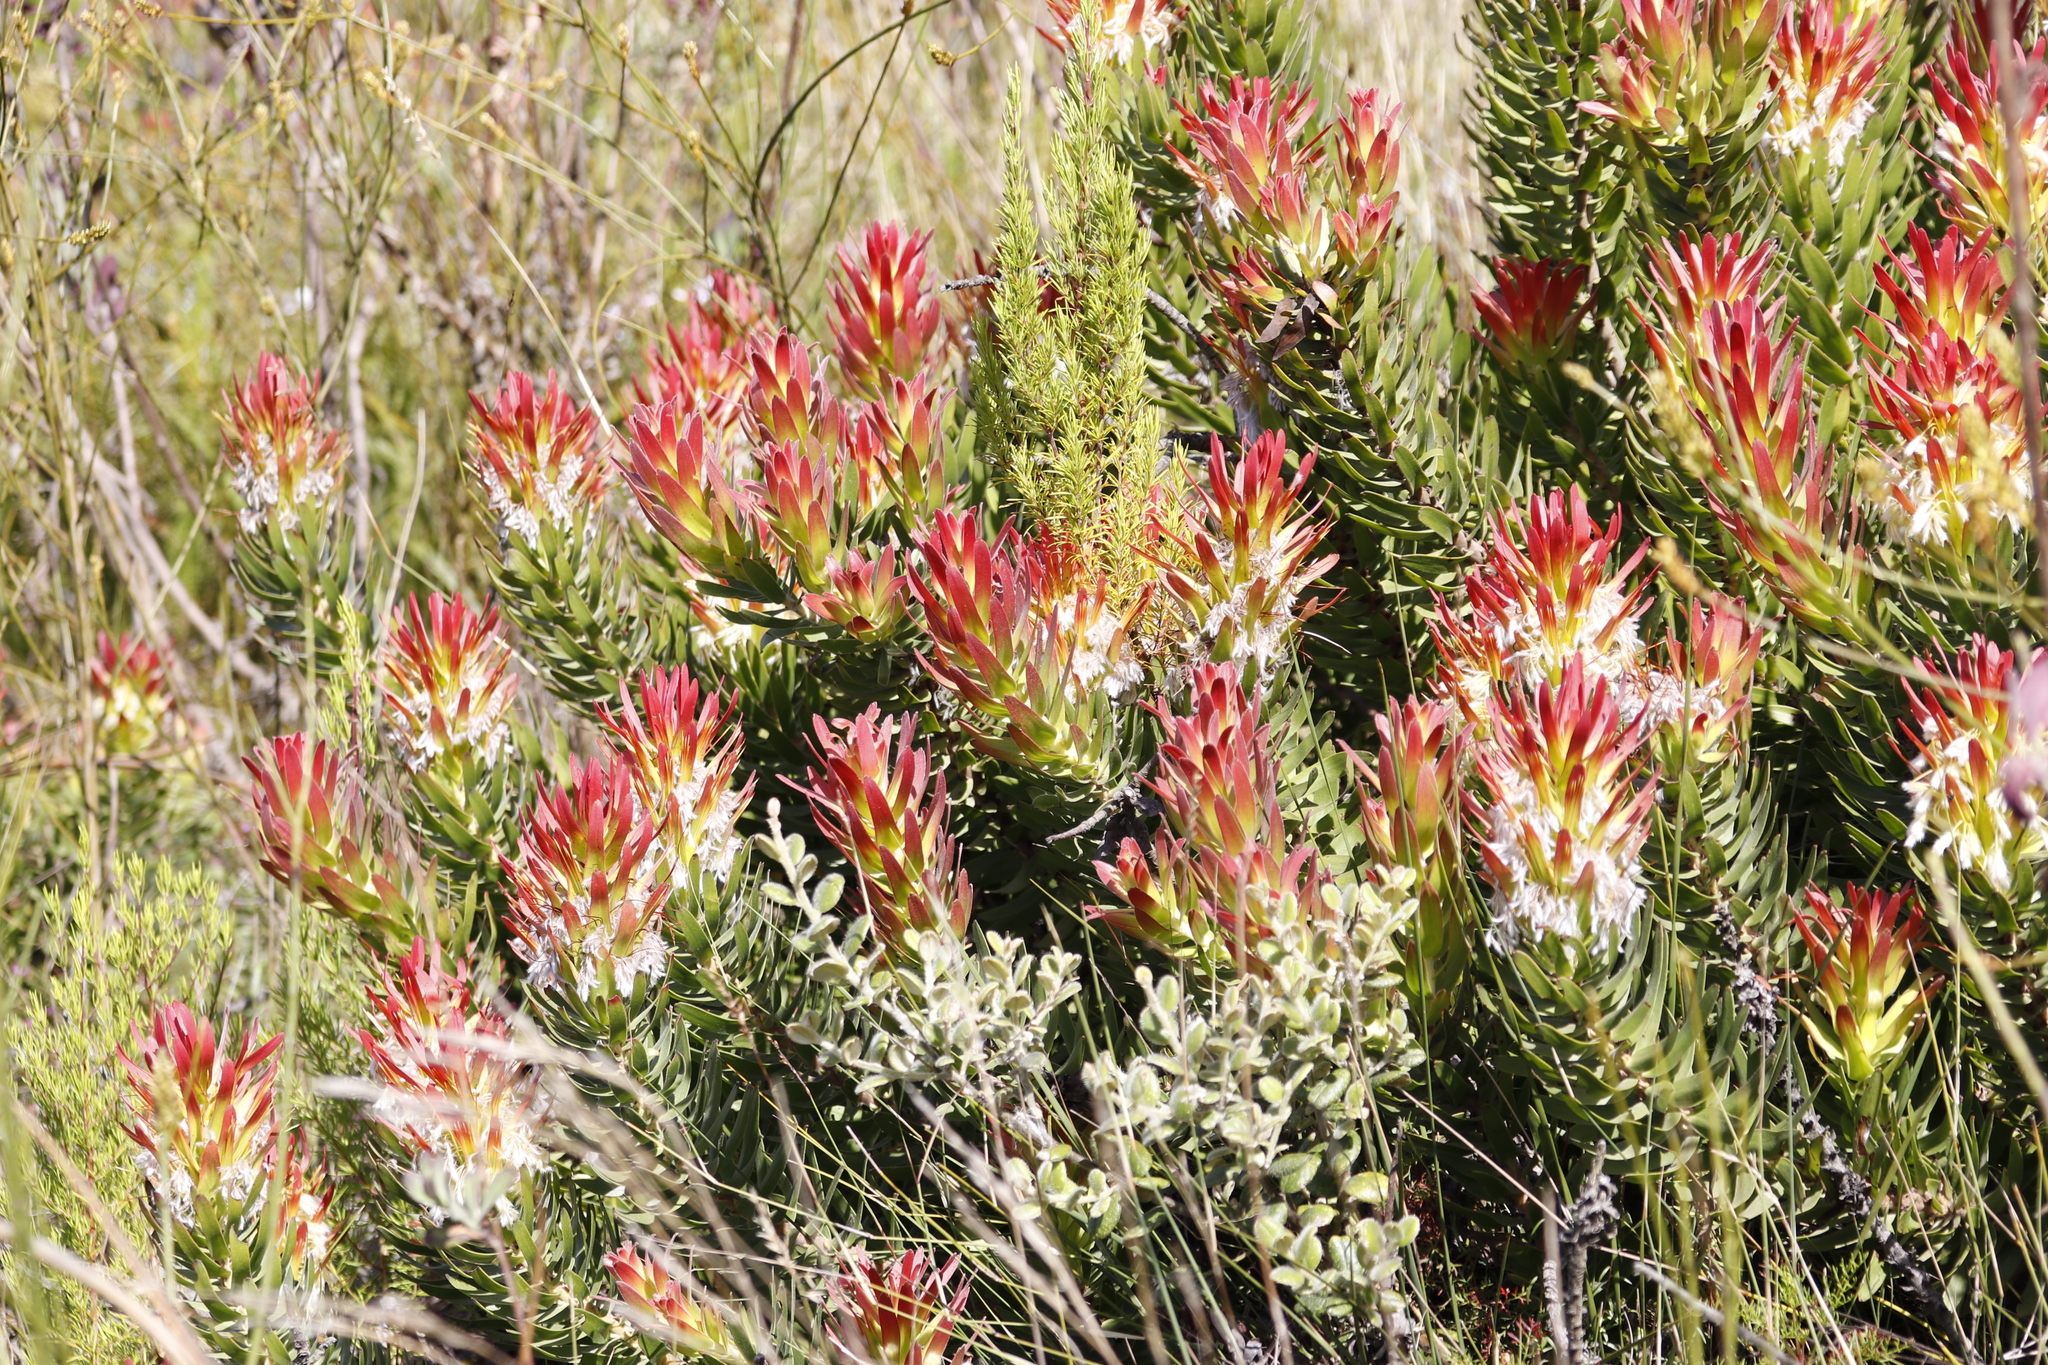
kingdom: Plantae
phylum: Tracheophyta
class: Magnoliopsida
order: Proteales
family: Proteaceae
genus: Mimetes
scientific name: Mimetes cucullatus
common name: Common pagoda
